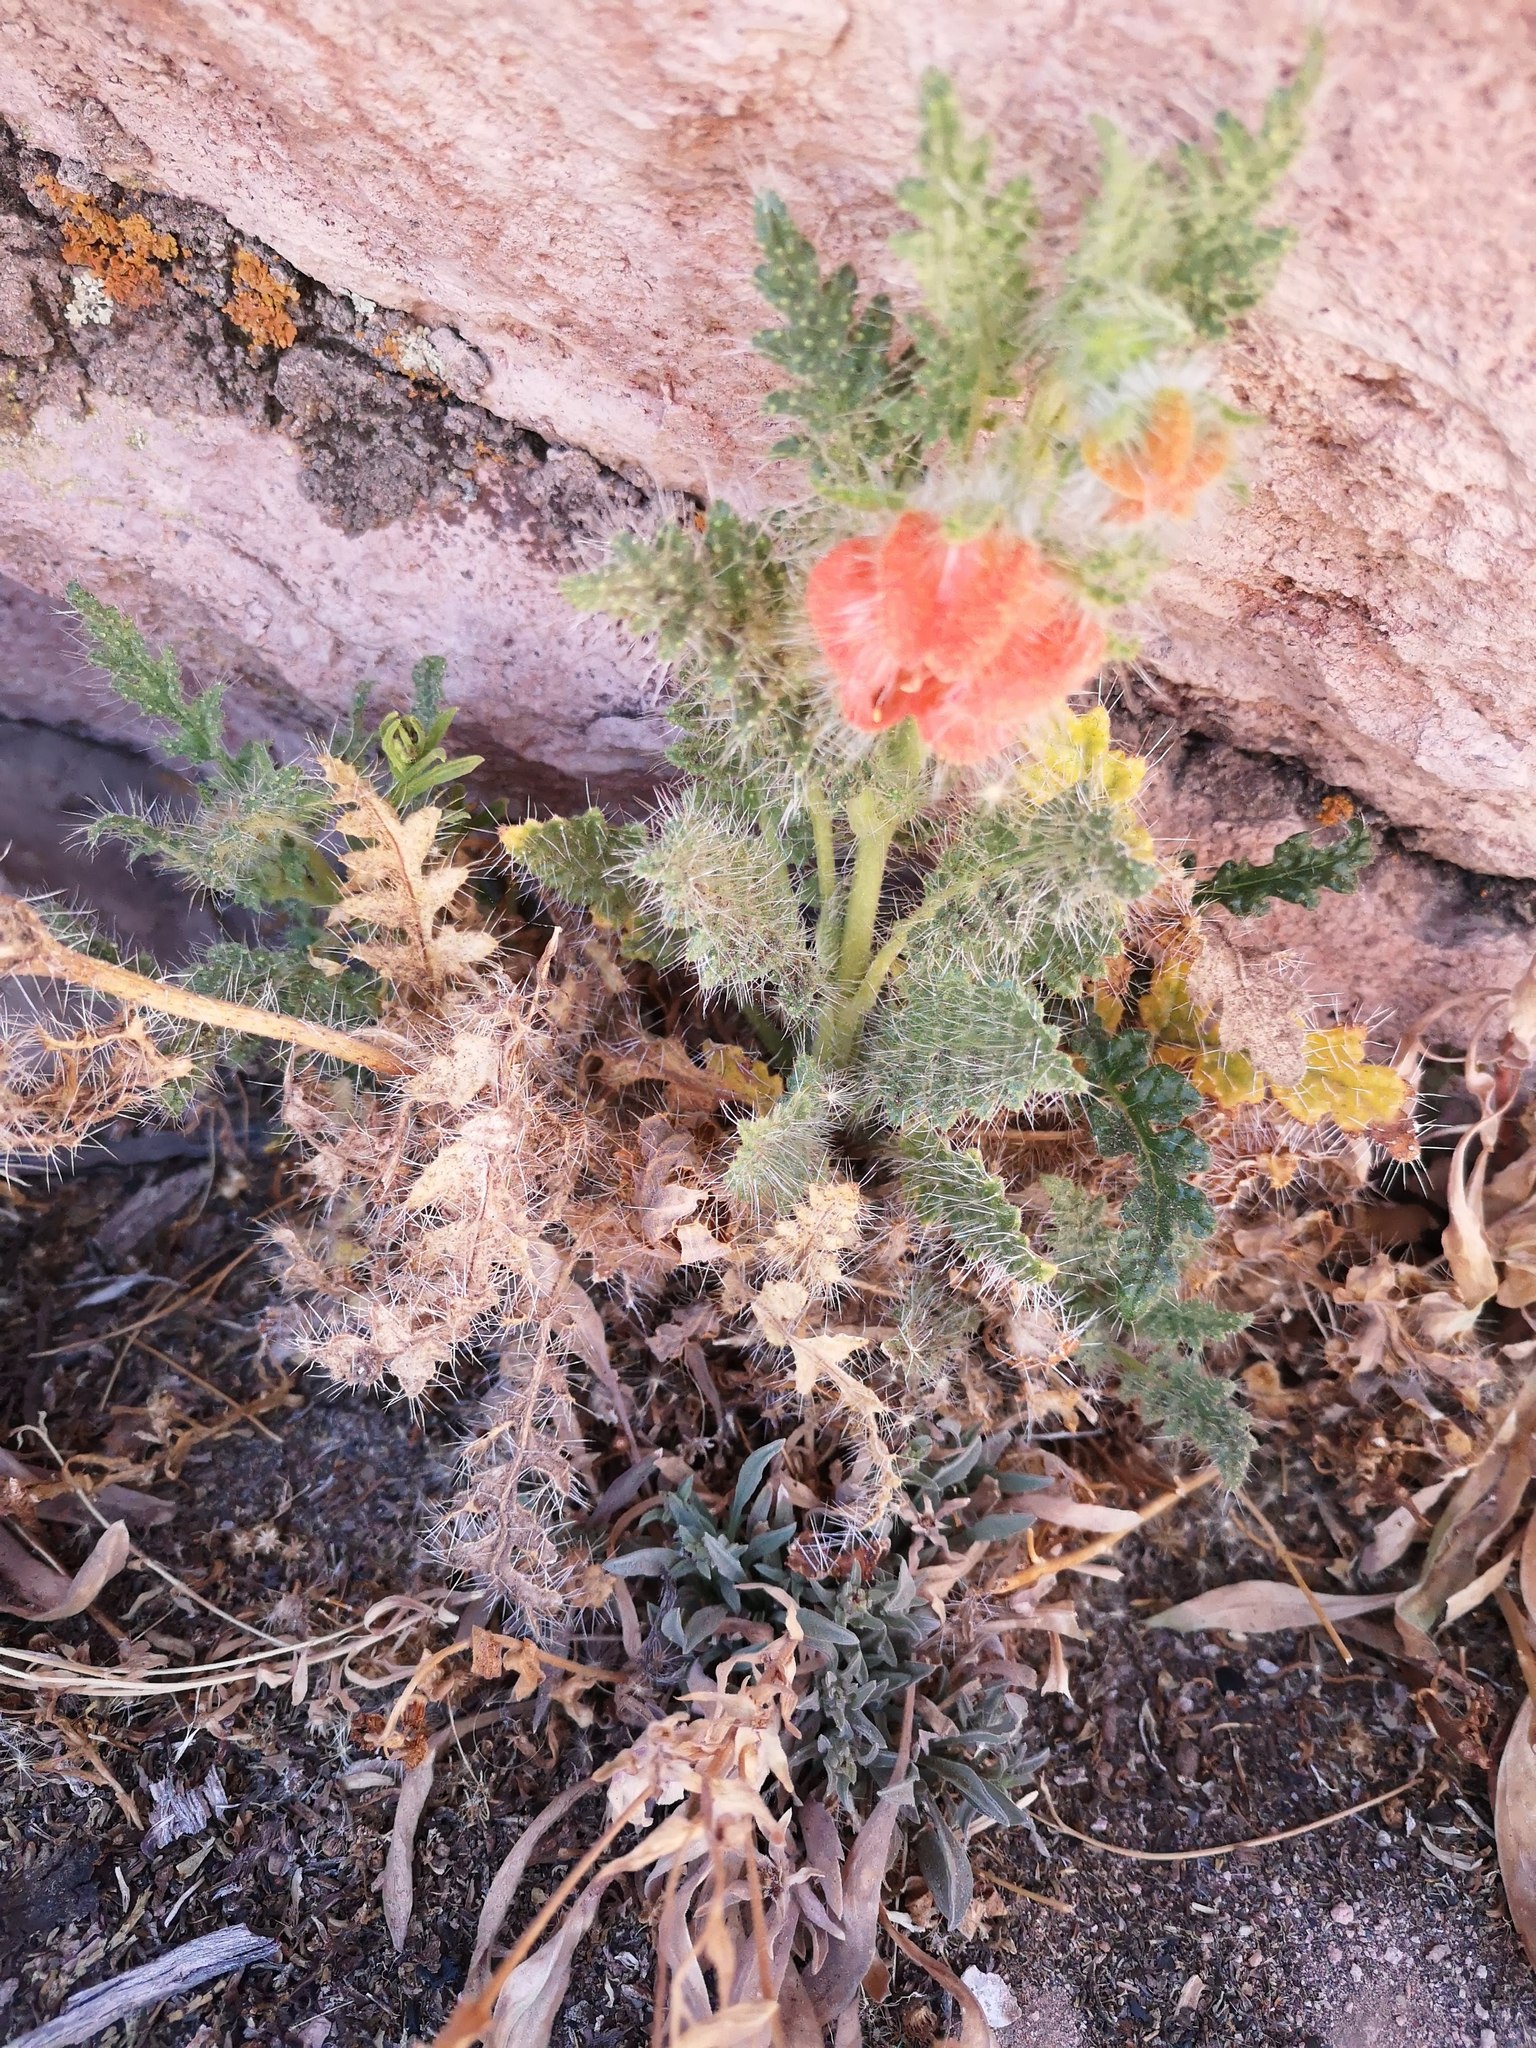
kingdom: Plantae
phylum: Tracheophyta
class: Magnoliopsida
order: Cornales
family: Loasaceae
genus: Caiophora
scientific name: Caiophora chuquitensis
